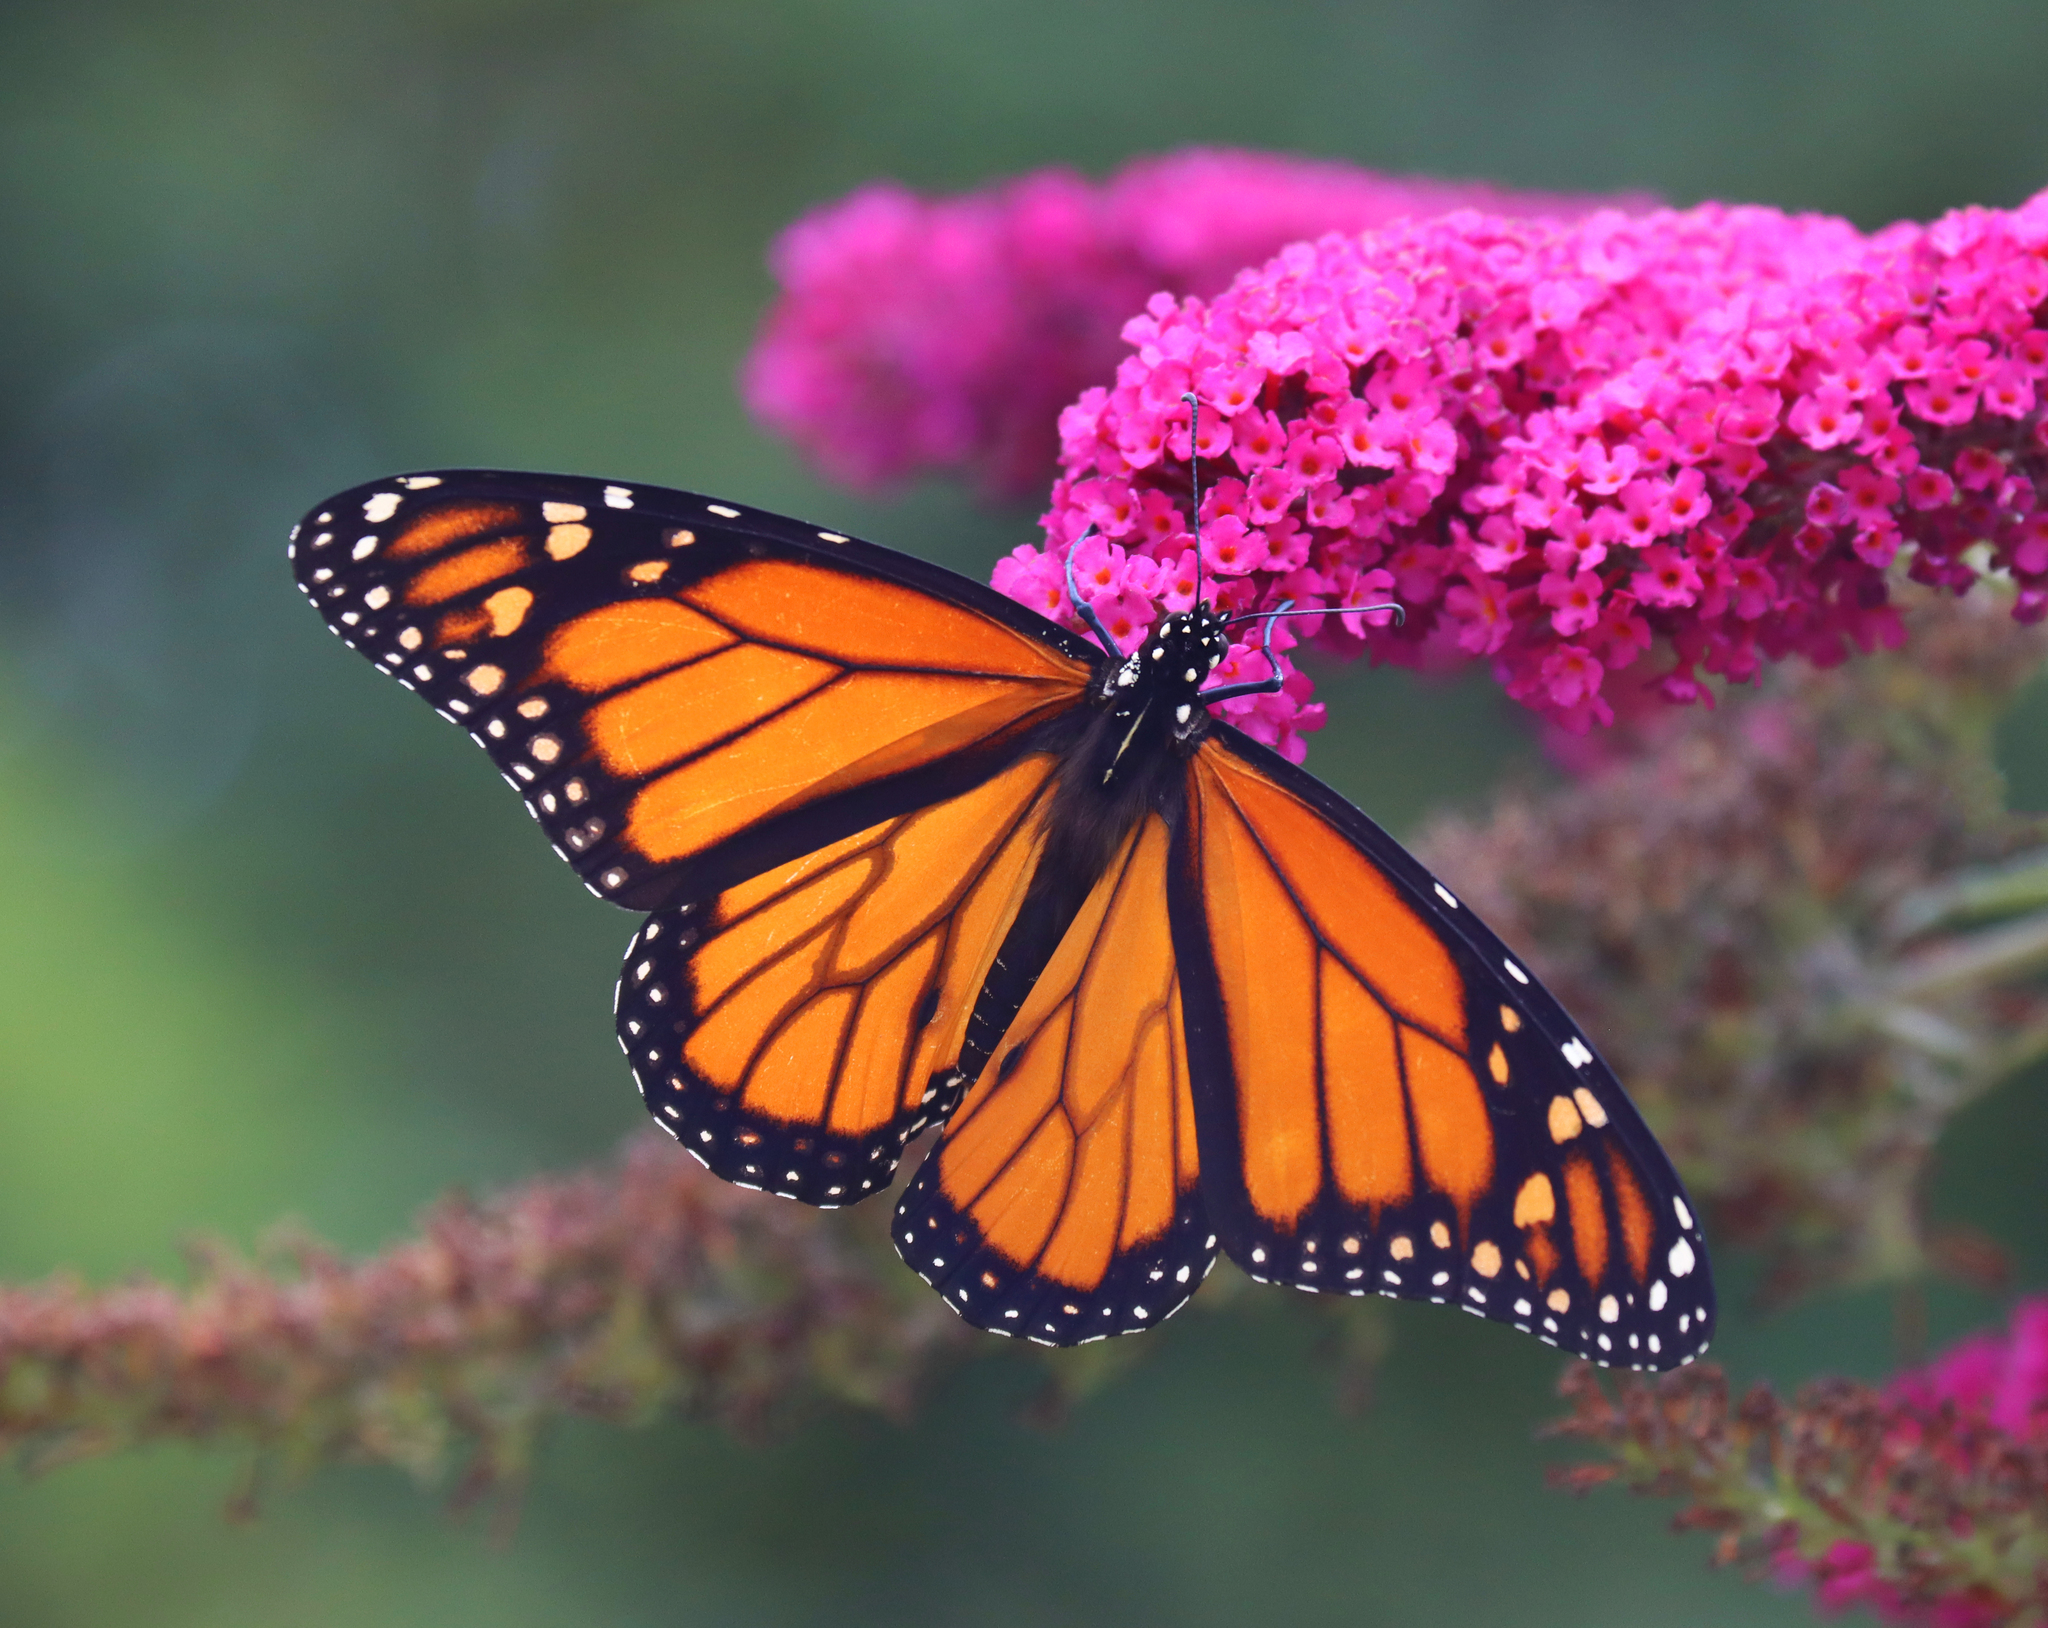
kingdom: Animalia
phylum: Arthropoda
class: Insecta
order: Lepidoptera
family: Nymphalidae
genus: Danaus
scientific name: Danaus plexippus
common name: Monarch
